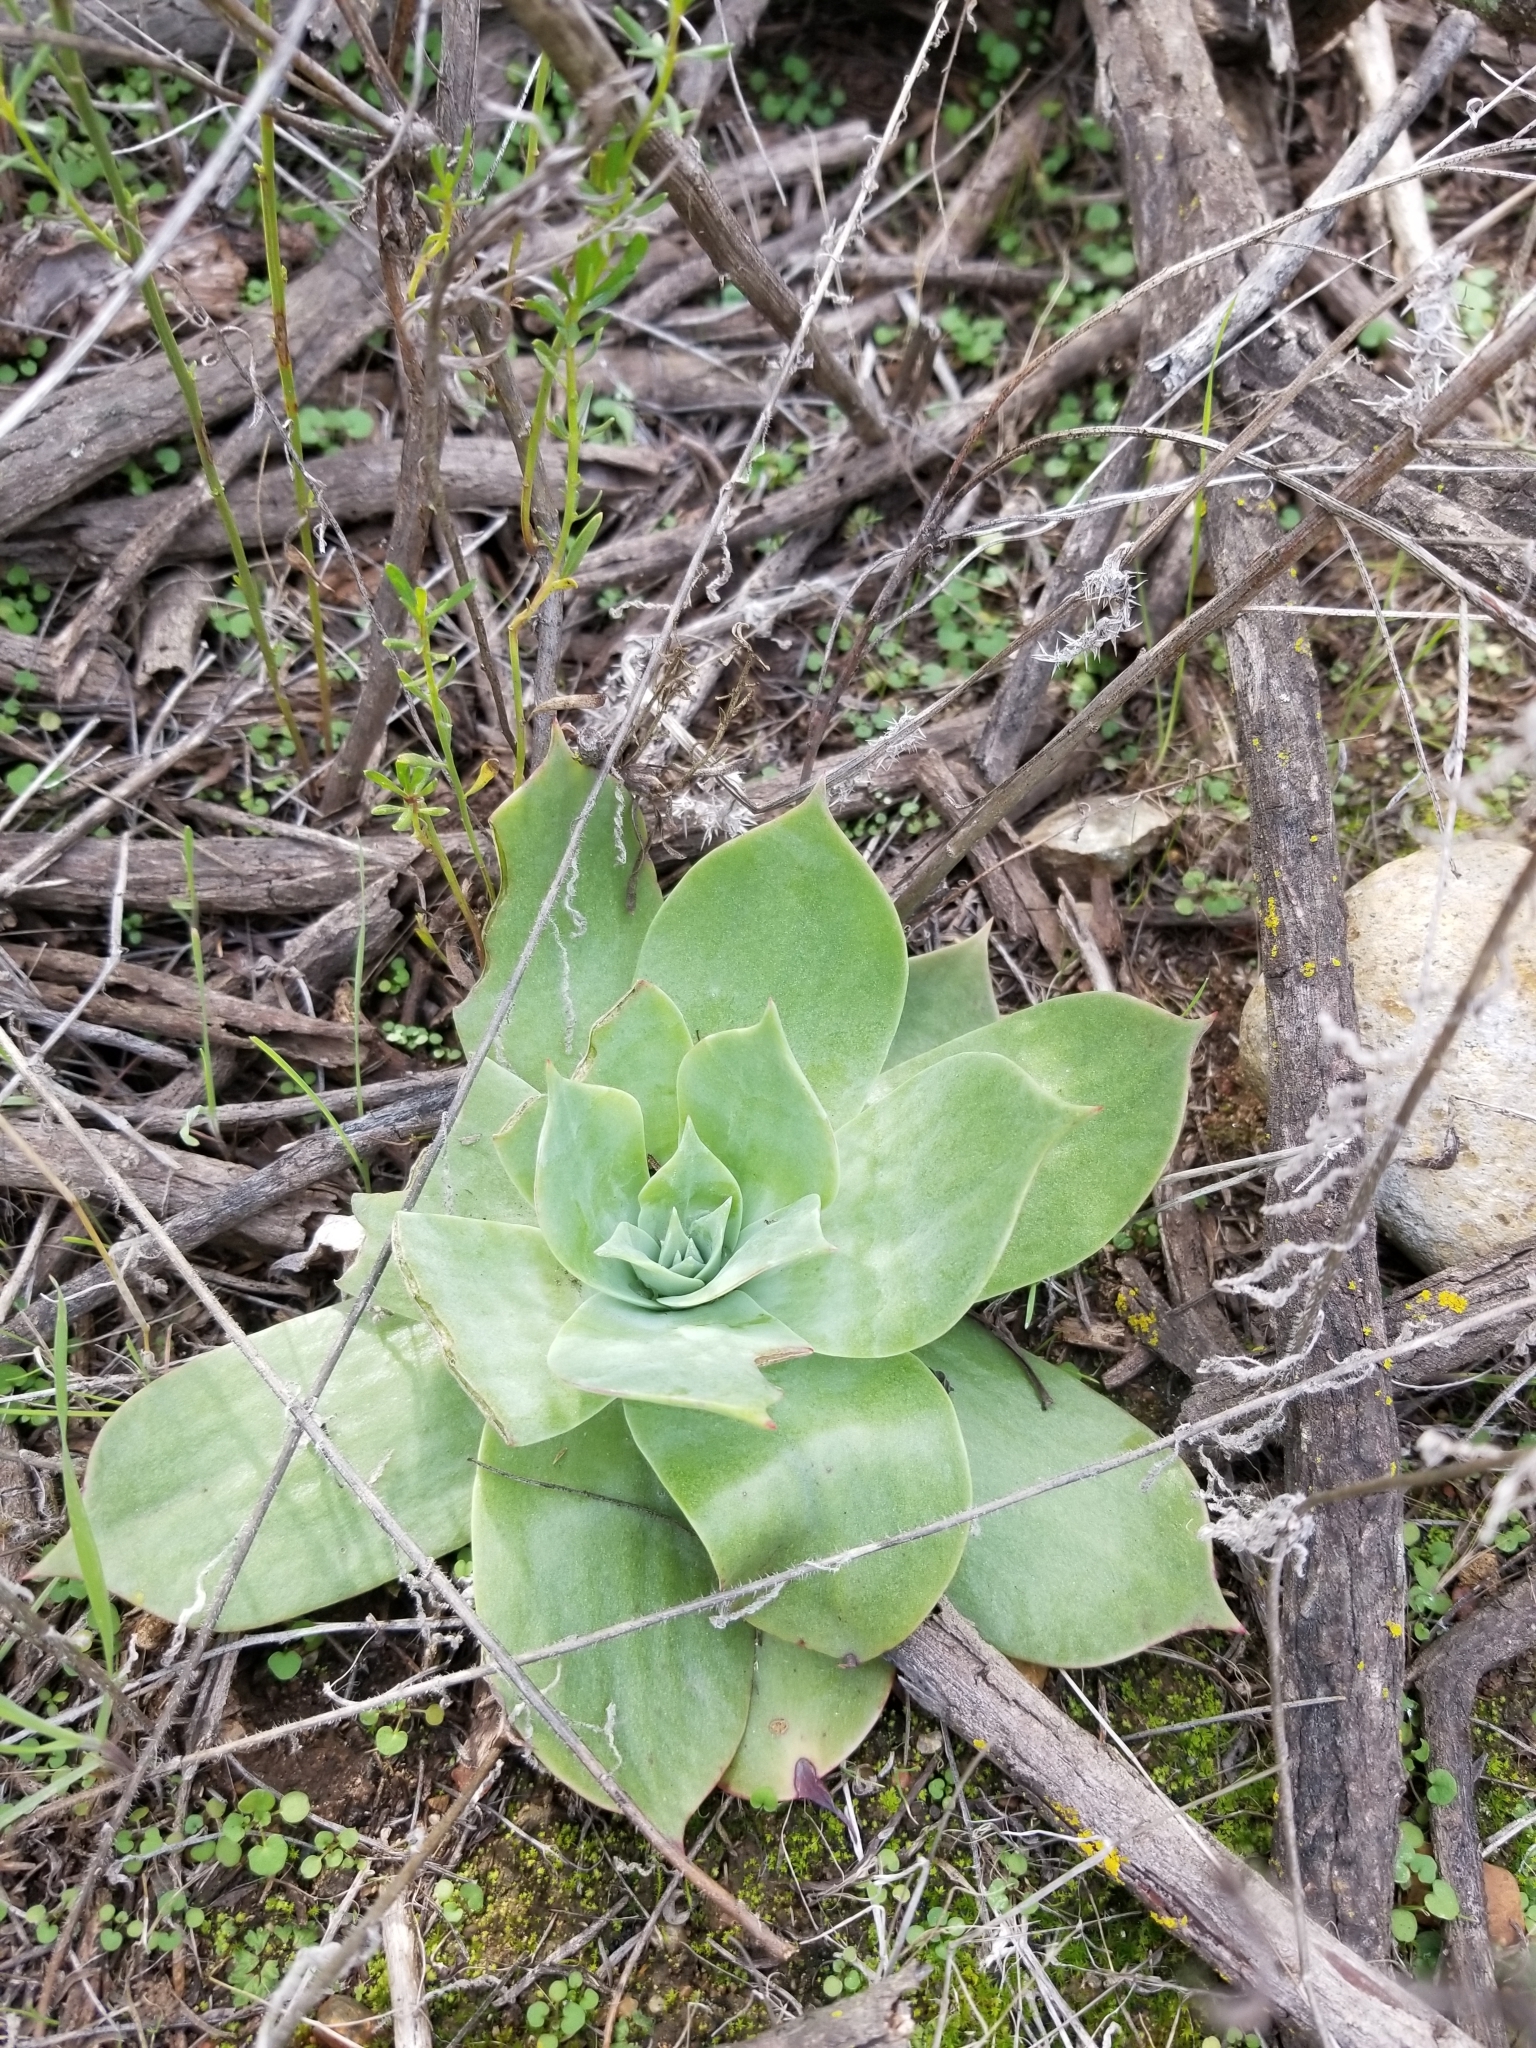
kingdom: Plantae
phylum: Tracheophyta
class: Magnoliopsida
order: Saxifragales
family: Crassulaceae
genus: Dudleya
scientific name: Dudleya pulverulenta
